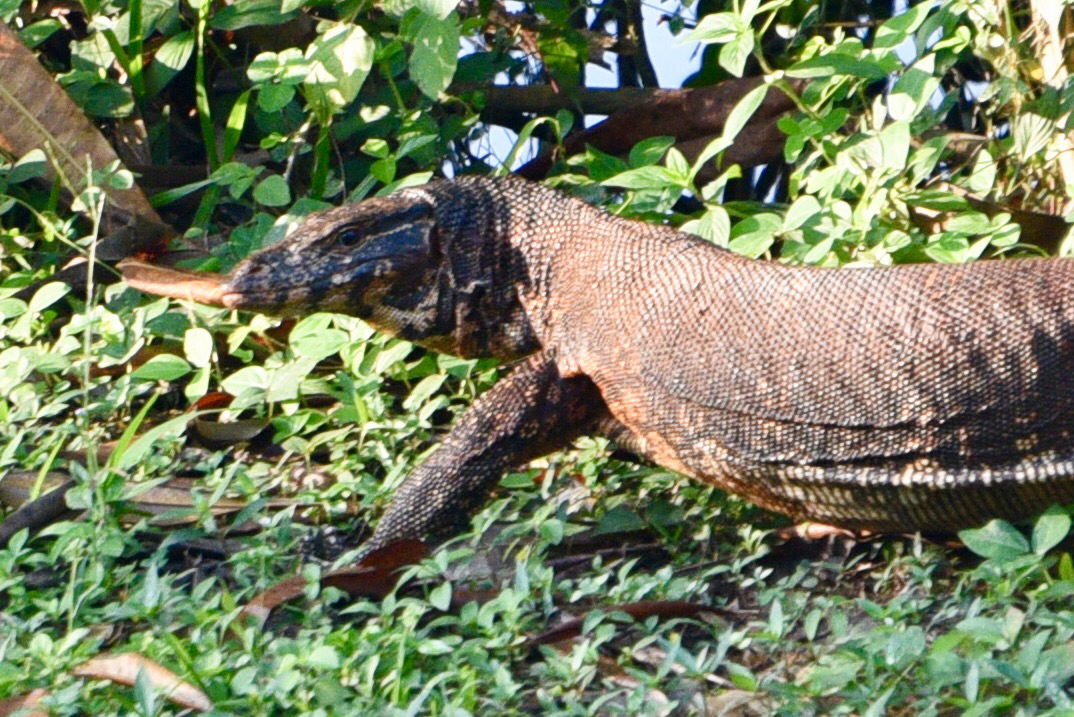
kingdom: Animalia
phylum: Chordata
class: Squamata
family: Varanidae
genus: Varanus
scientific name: Varanus salvator
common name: Common water monitor
